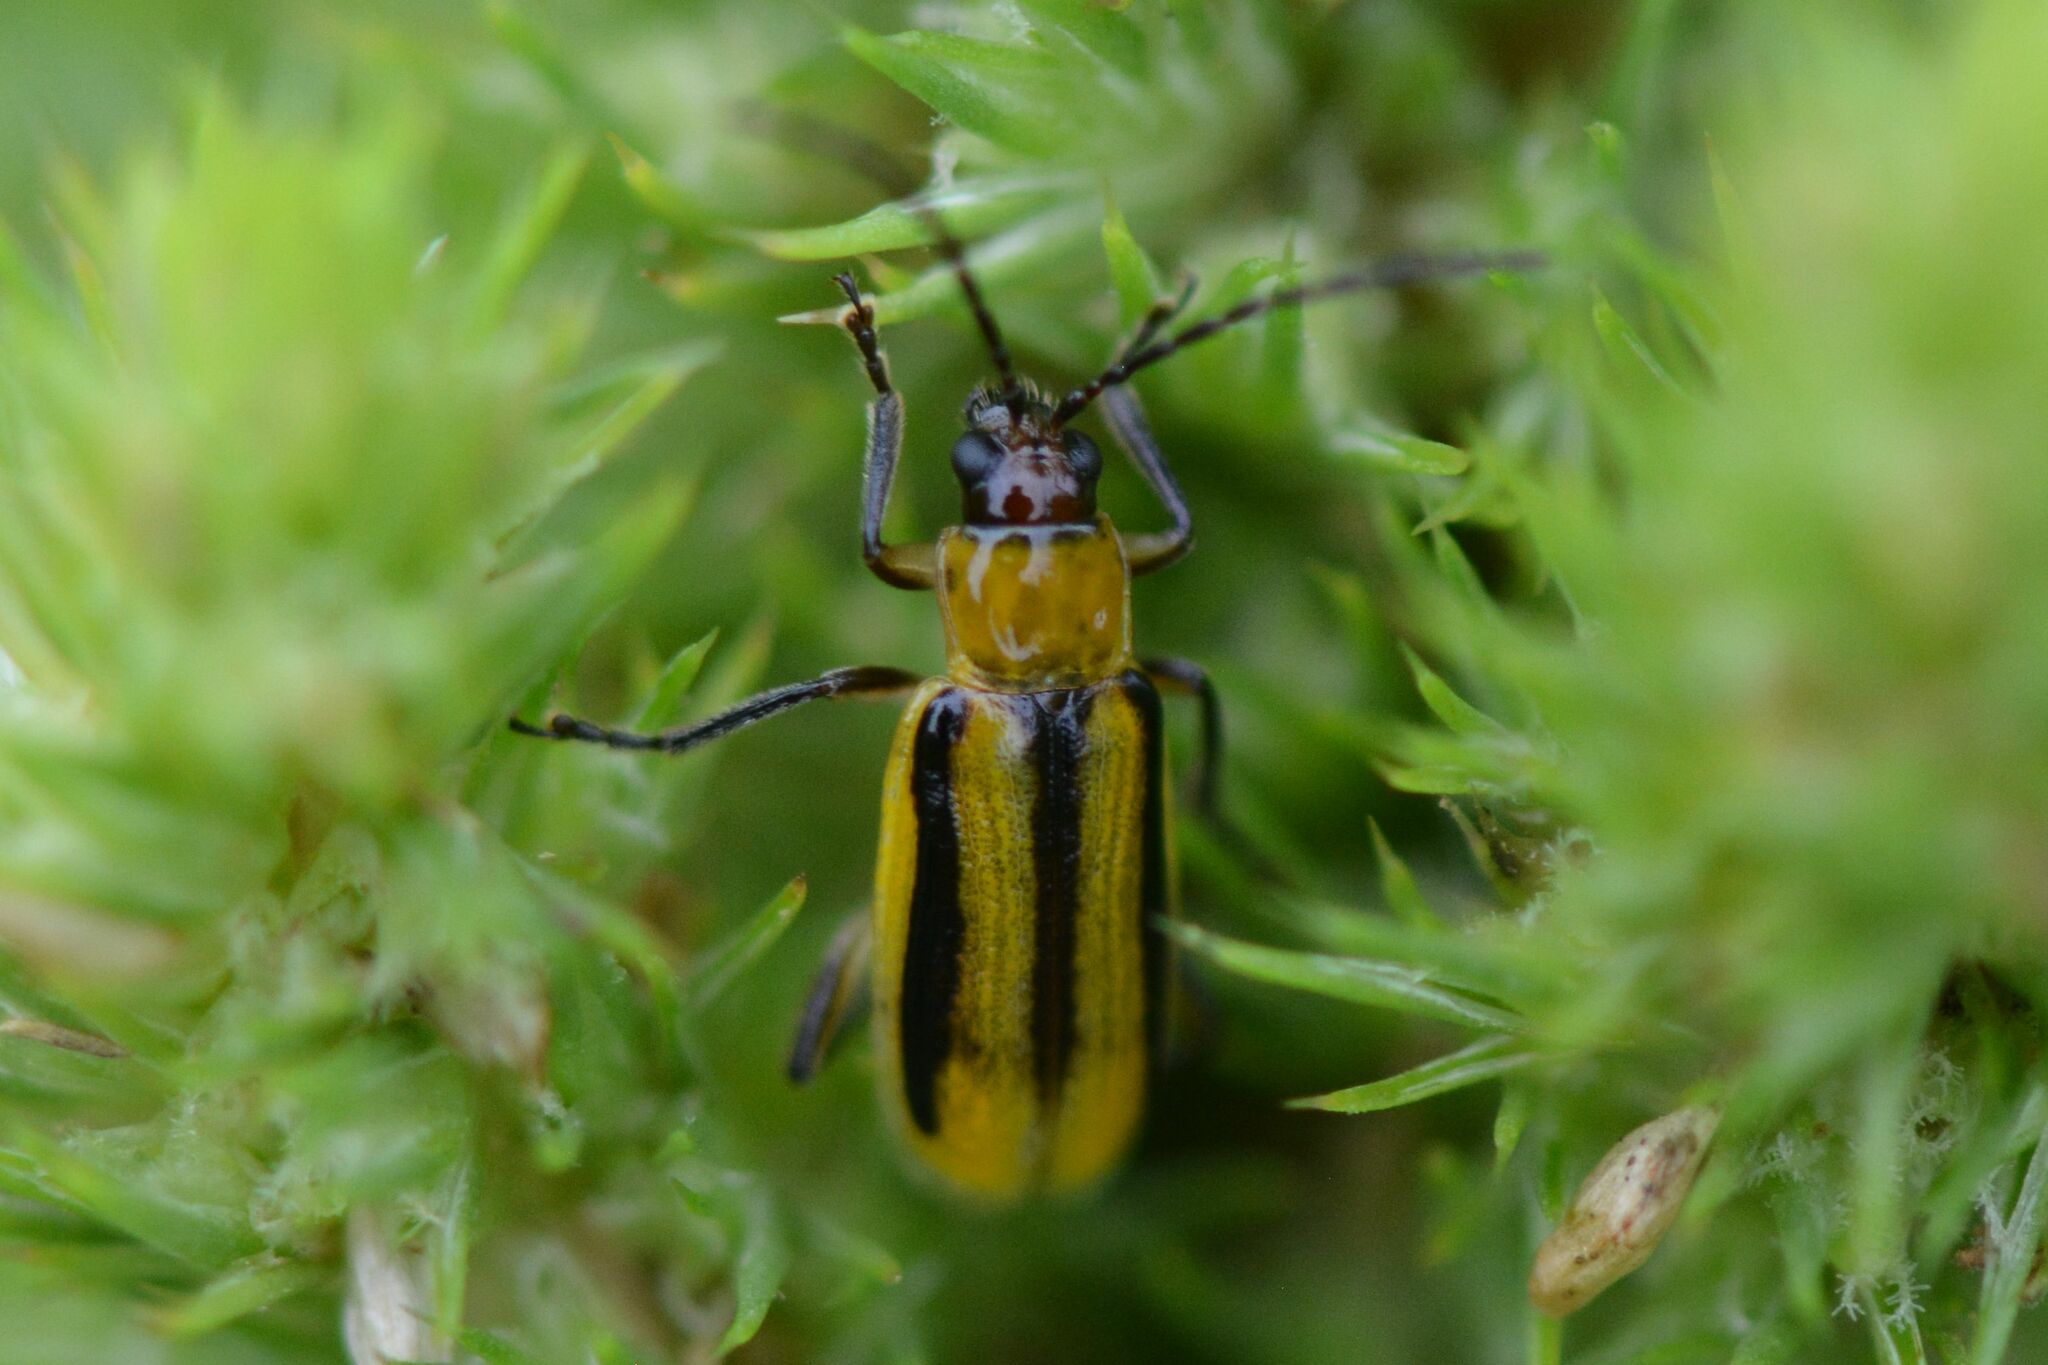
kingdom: Animalia
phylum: Arthropoda
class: Insecta
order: Coleoptera
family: Chrysomelidae
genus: Diabrotica
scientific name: Diabrotica virgifera
